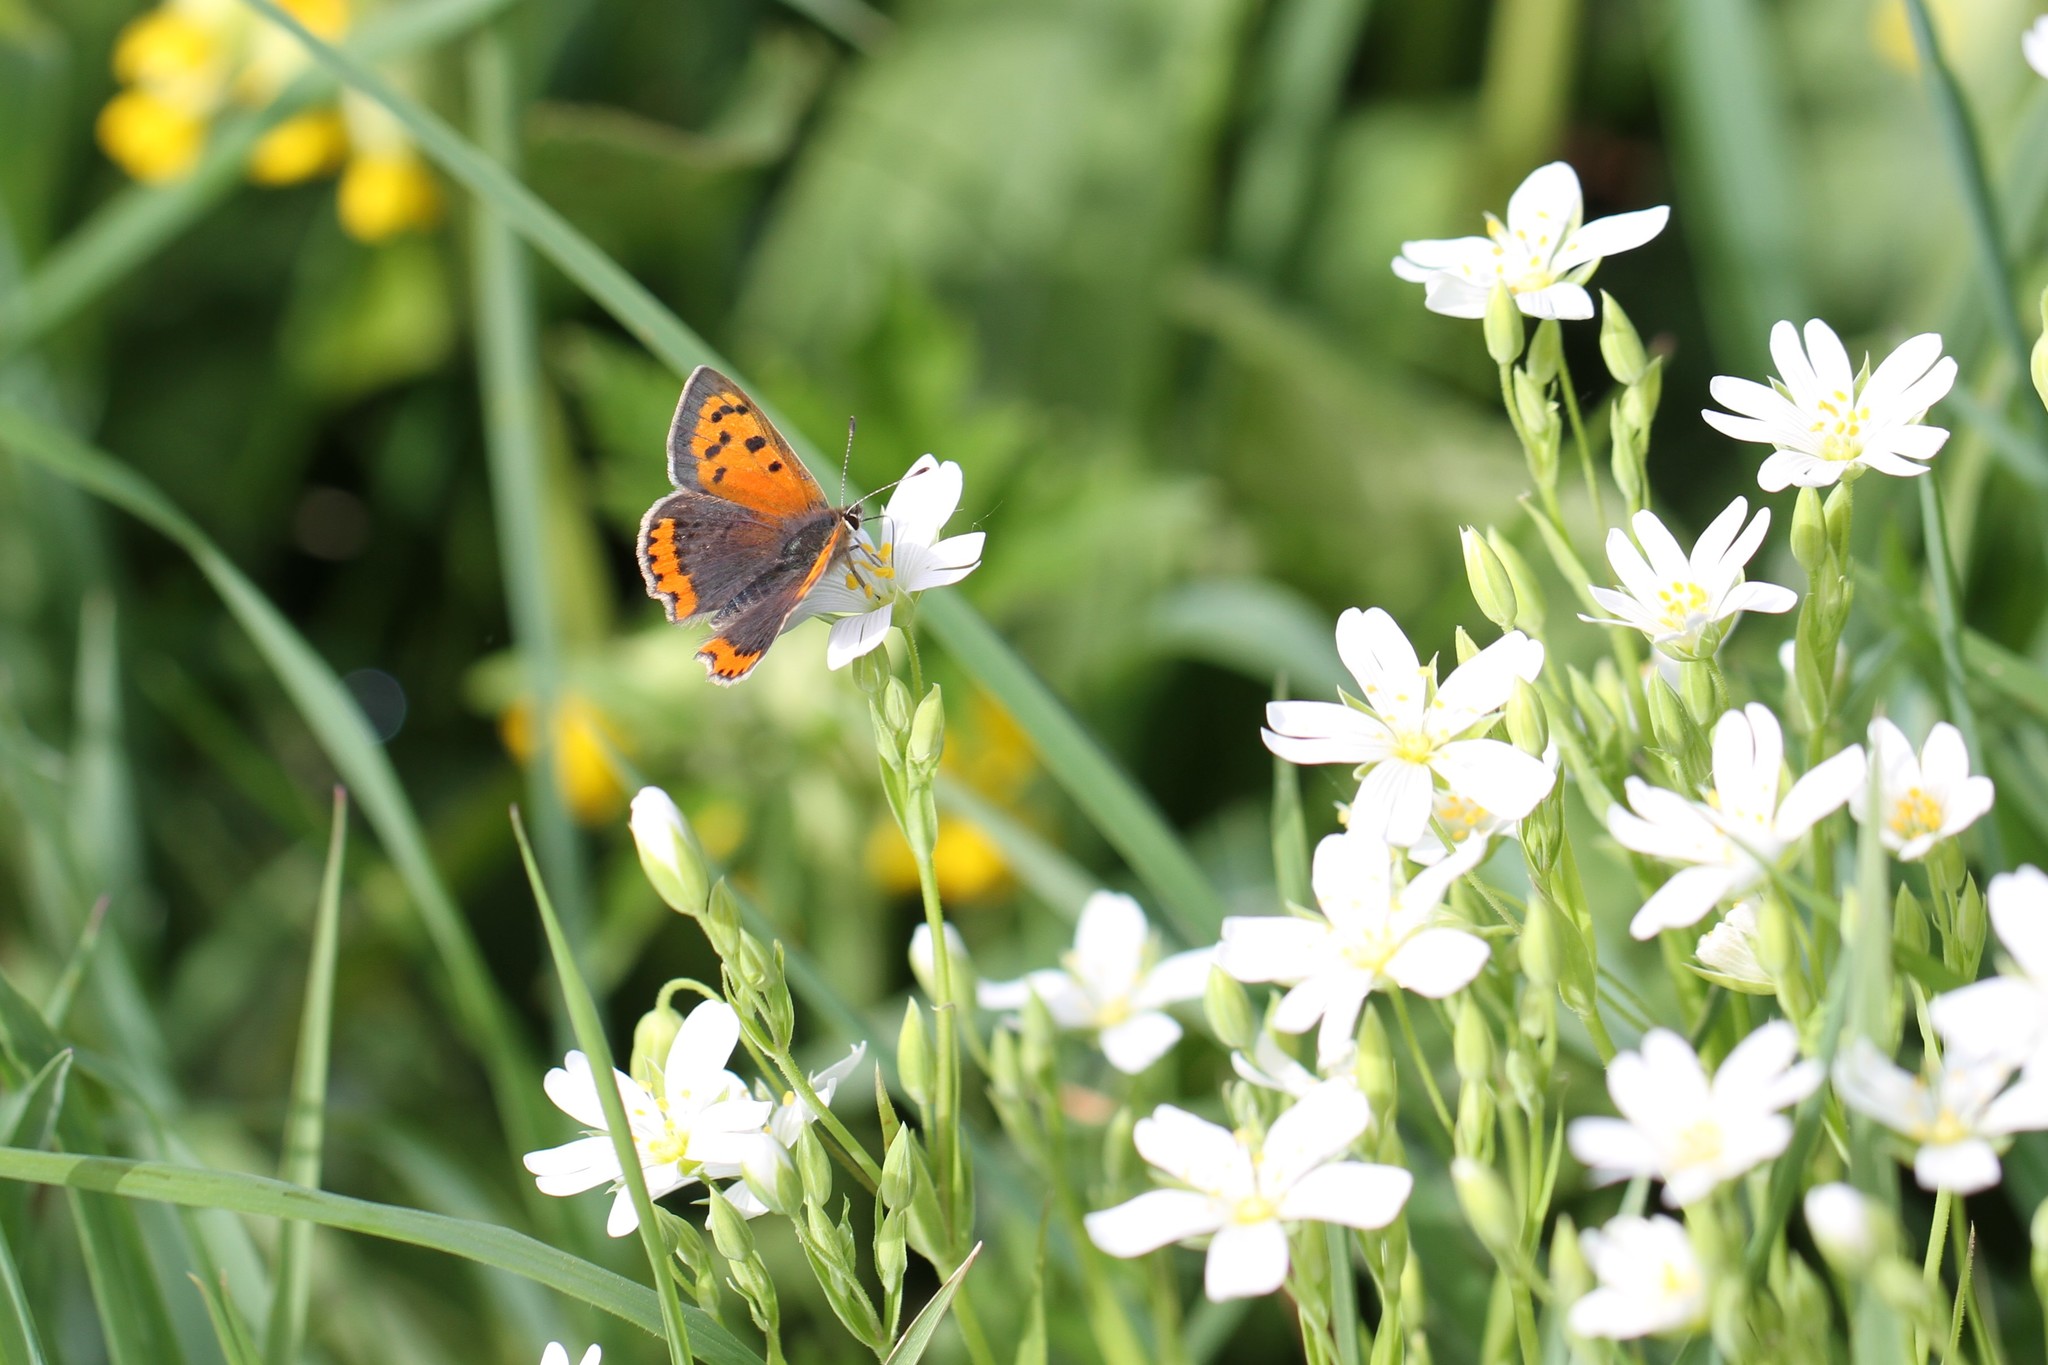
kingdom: Animalia
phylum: Arthropoda
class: Insecta
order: Lepidoptera
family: Lycaenidae
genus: Lycaena
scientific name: Lycaena phlaeas
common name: Small copper
